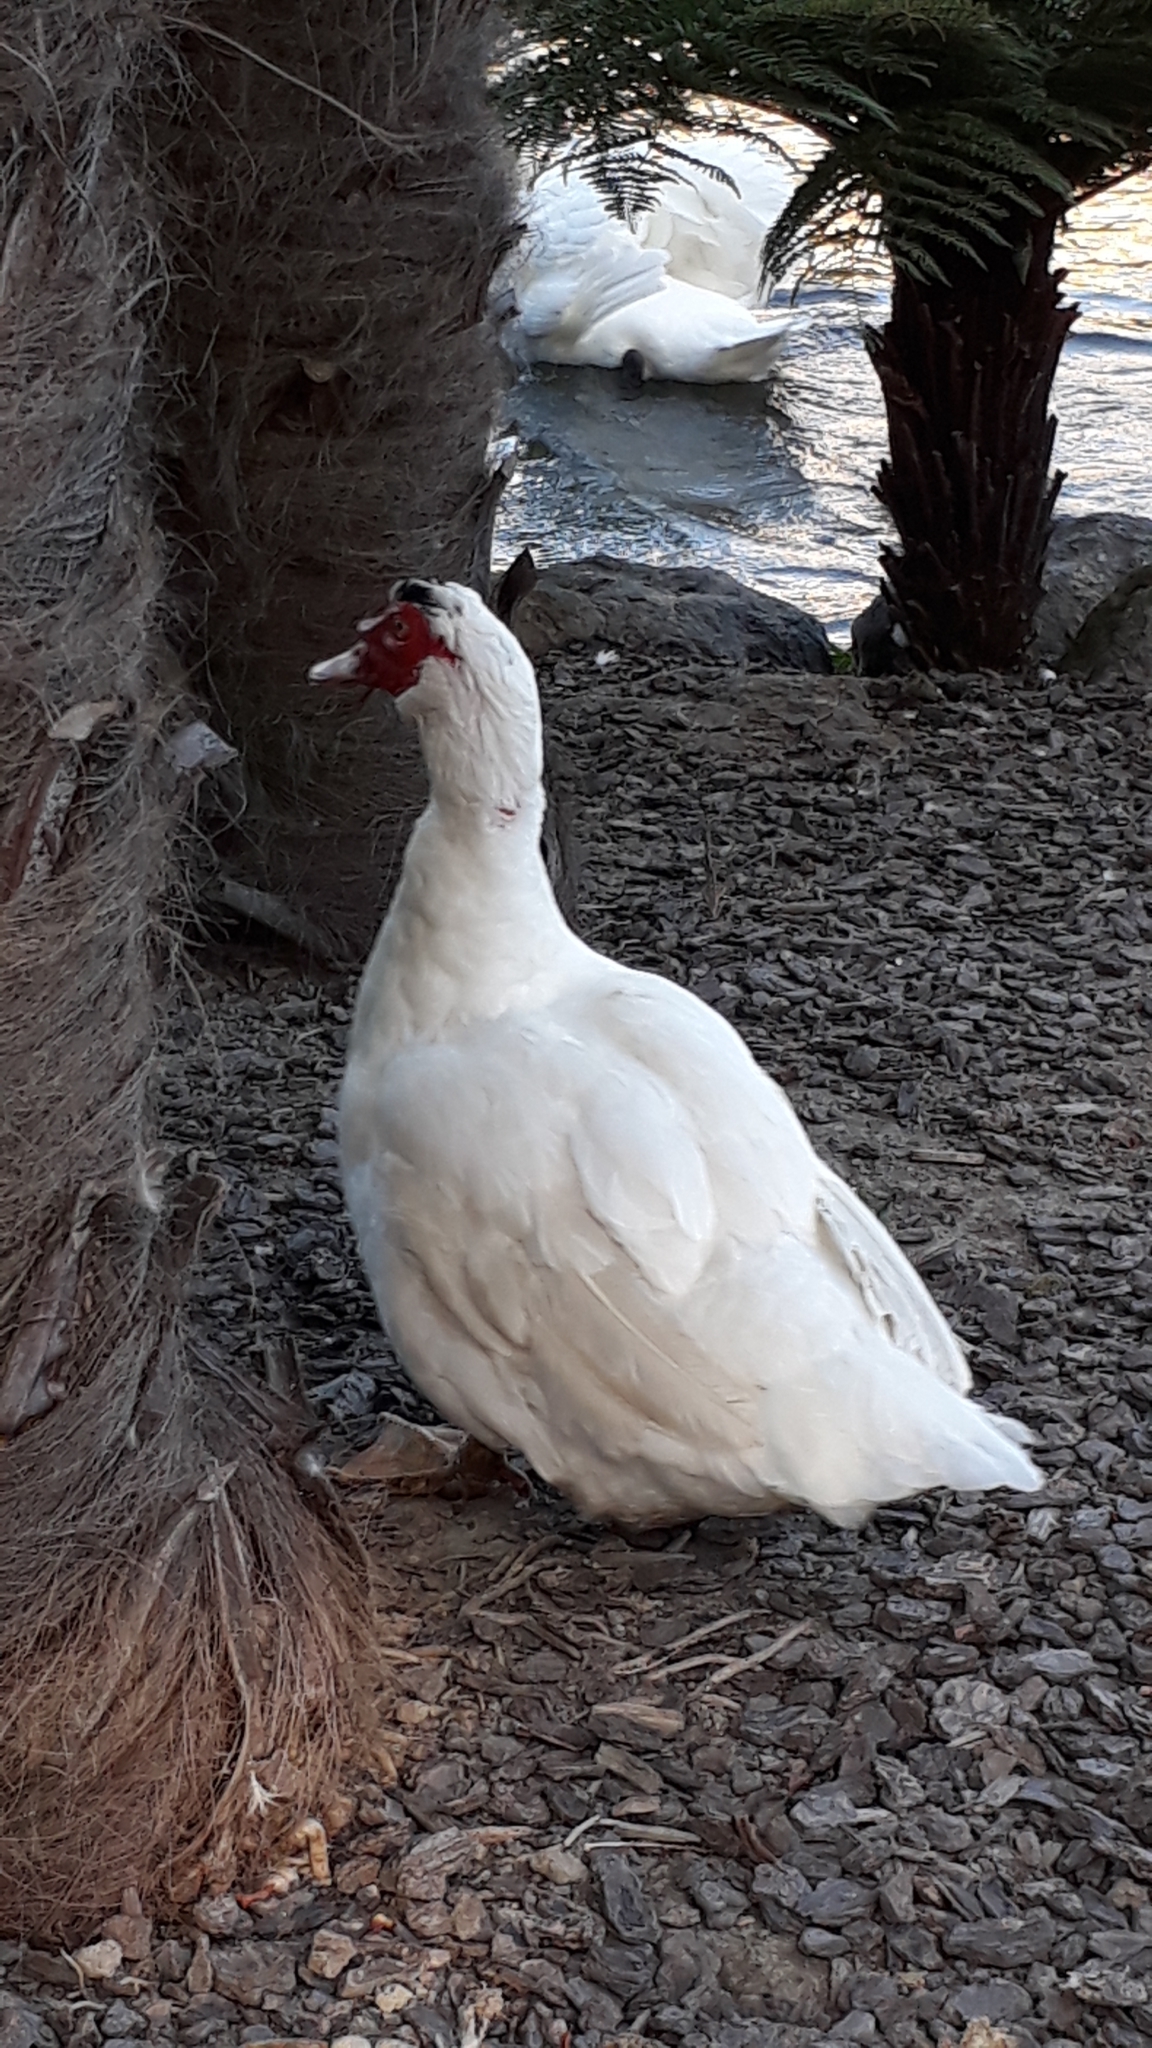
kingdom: Animalia
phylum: Chordata
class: Aves
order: Anseriformes
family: Anatidae
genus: Cairina
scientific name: Cairina moschata
